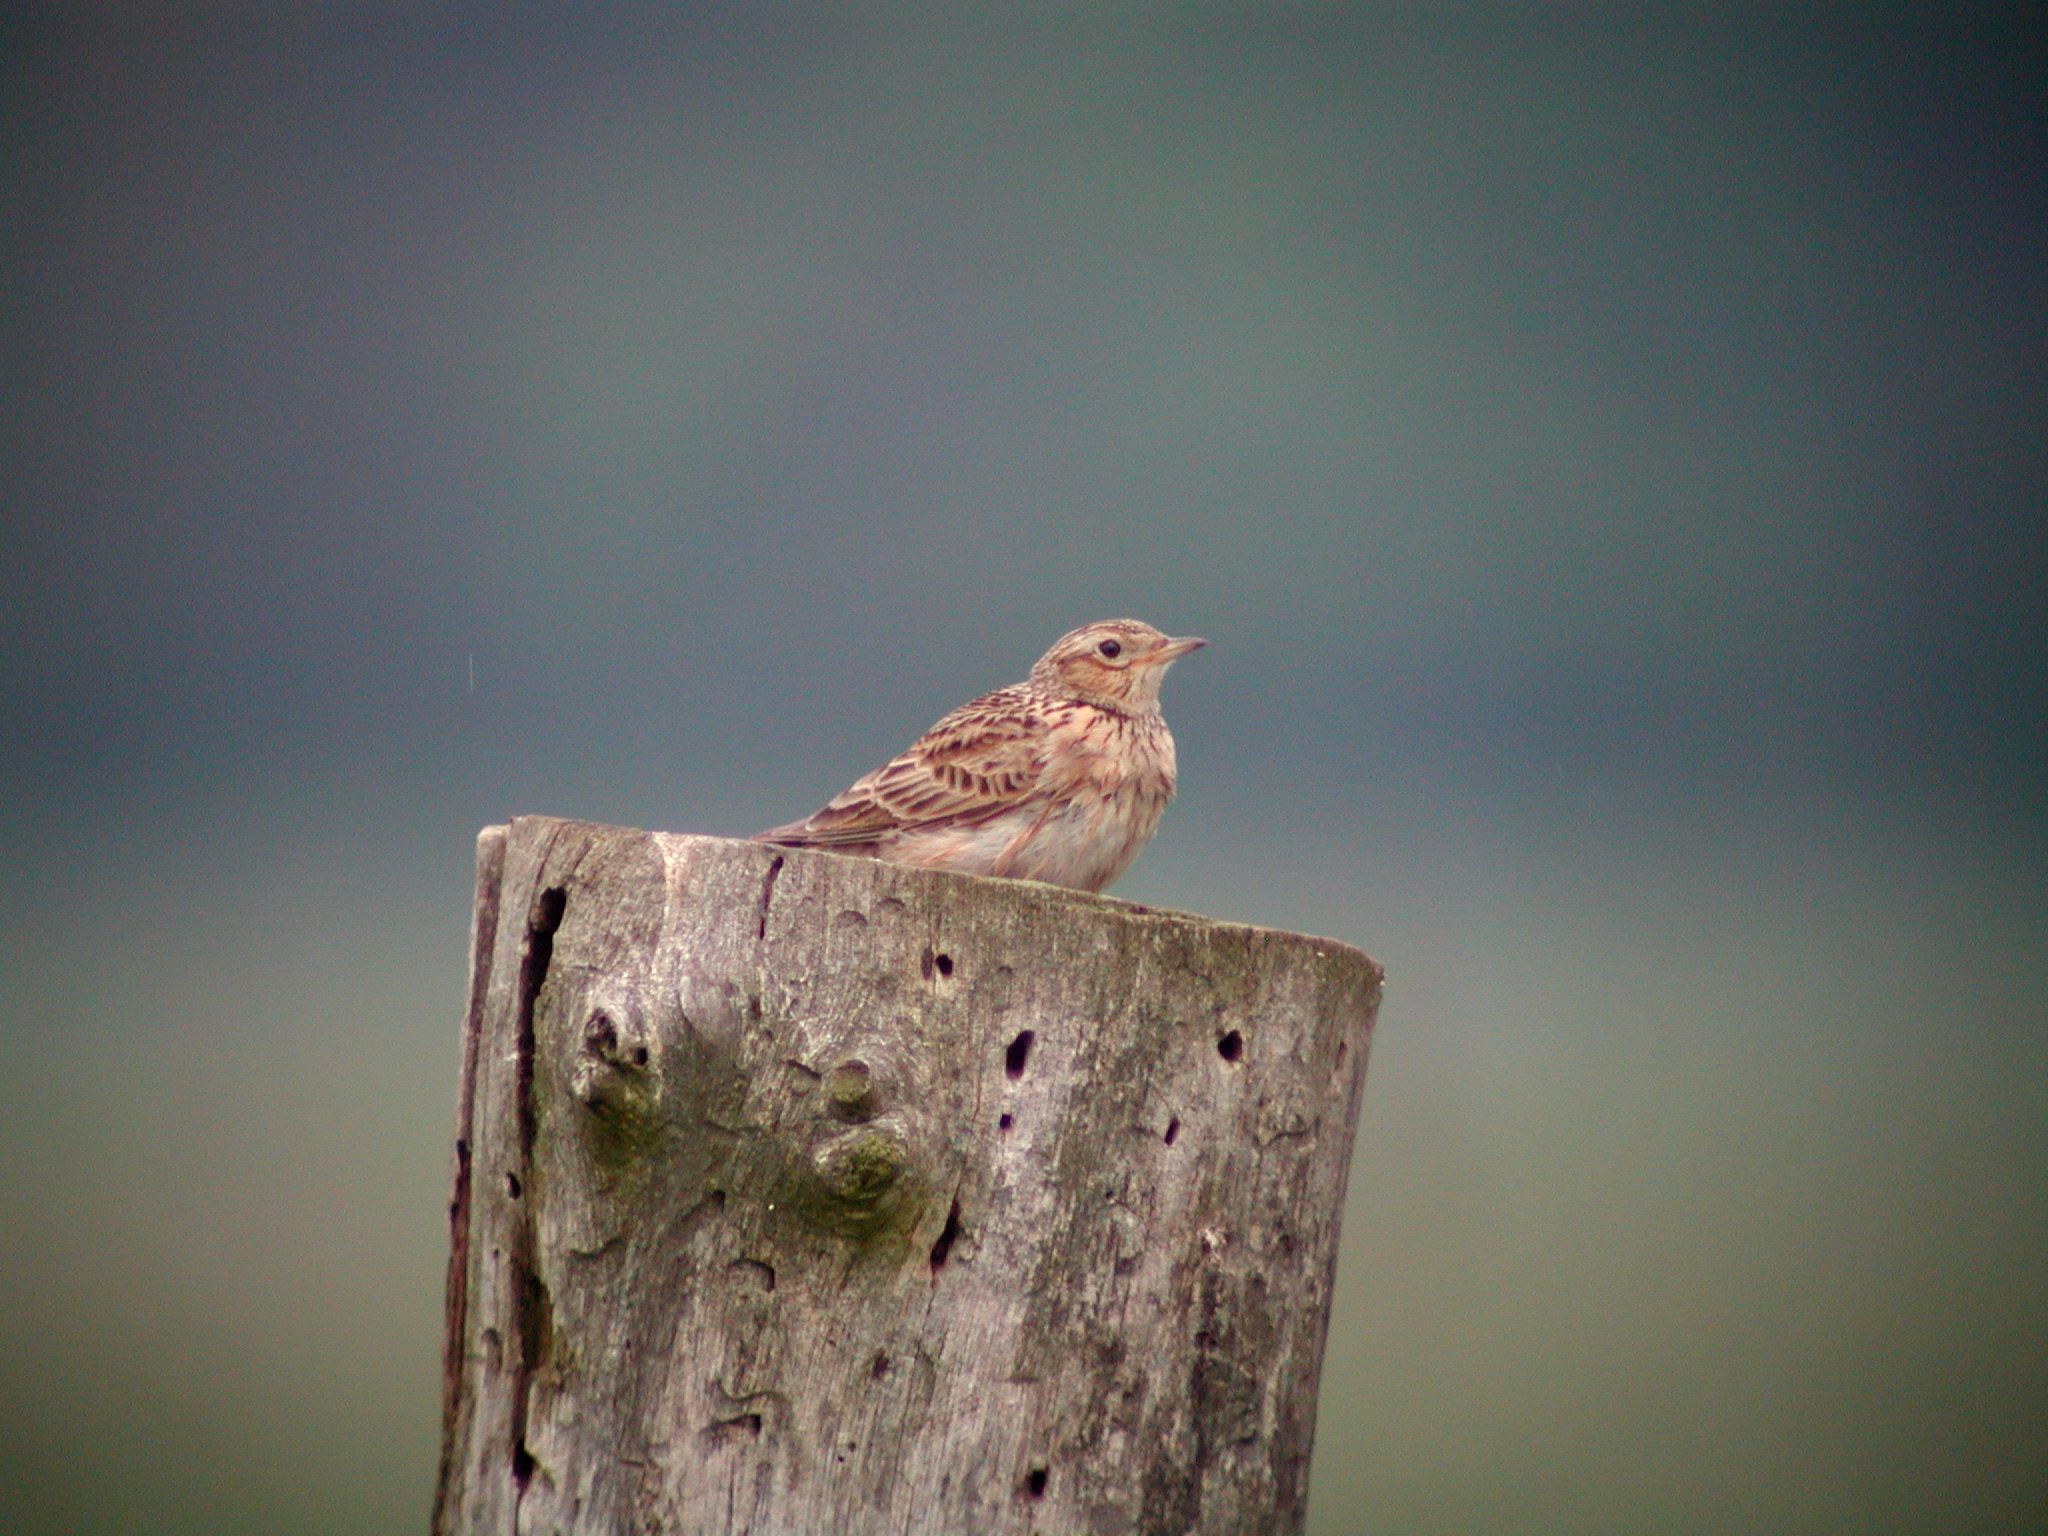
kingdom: Animalia
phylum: Chordata
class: Aves
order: Passeriformes
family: Alaudidae
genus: Alauda
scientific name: Alauda arvensis
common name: Eurasian skylark
